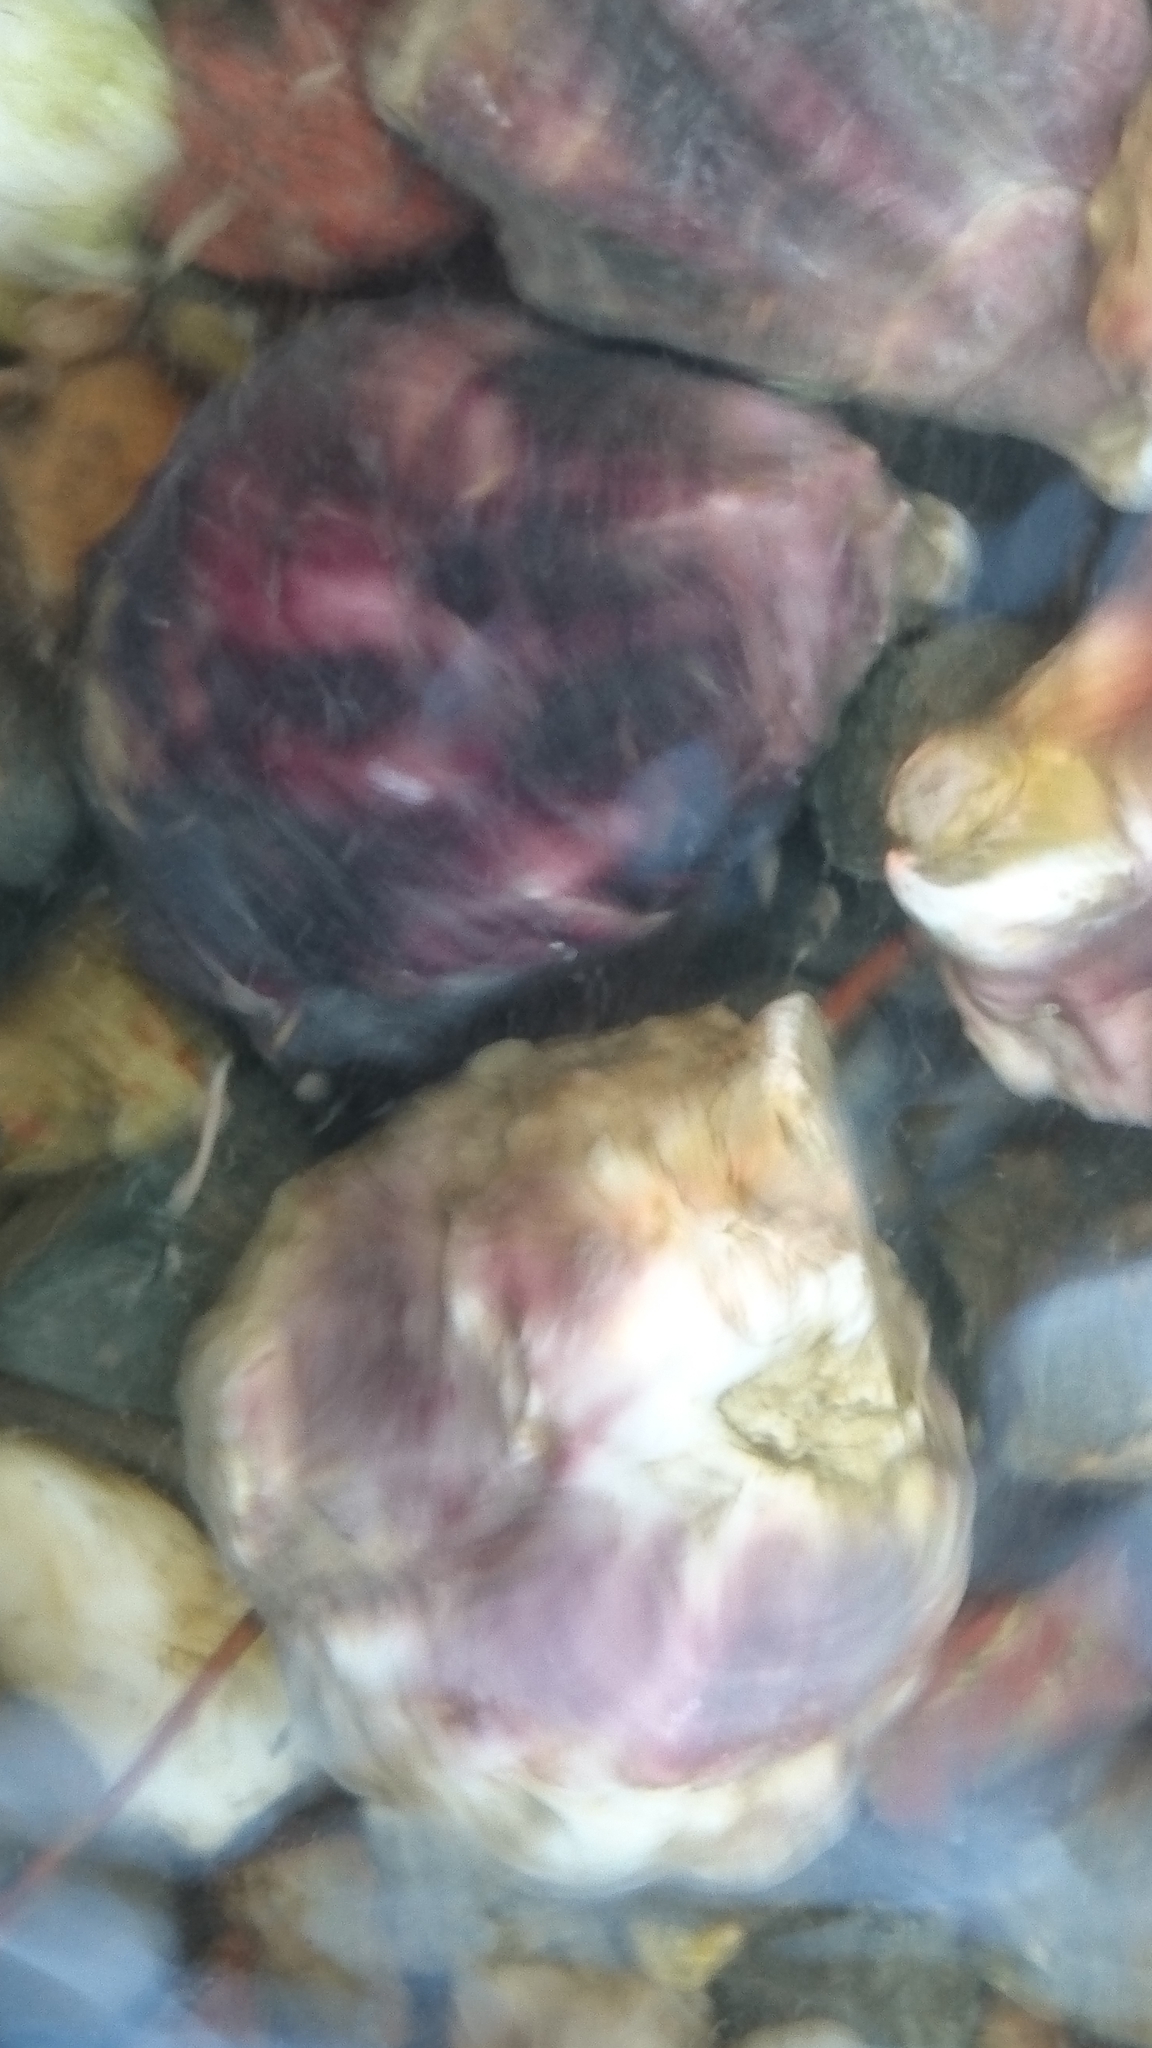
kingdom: Animalia
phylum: Mollusca
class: Bivalvia
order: Ostreida
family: Ostreidae
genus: Saccostrea
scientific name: Saccostrea glomerata
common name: Sydney cupped oyster
